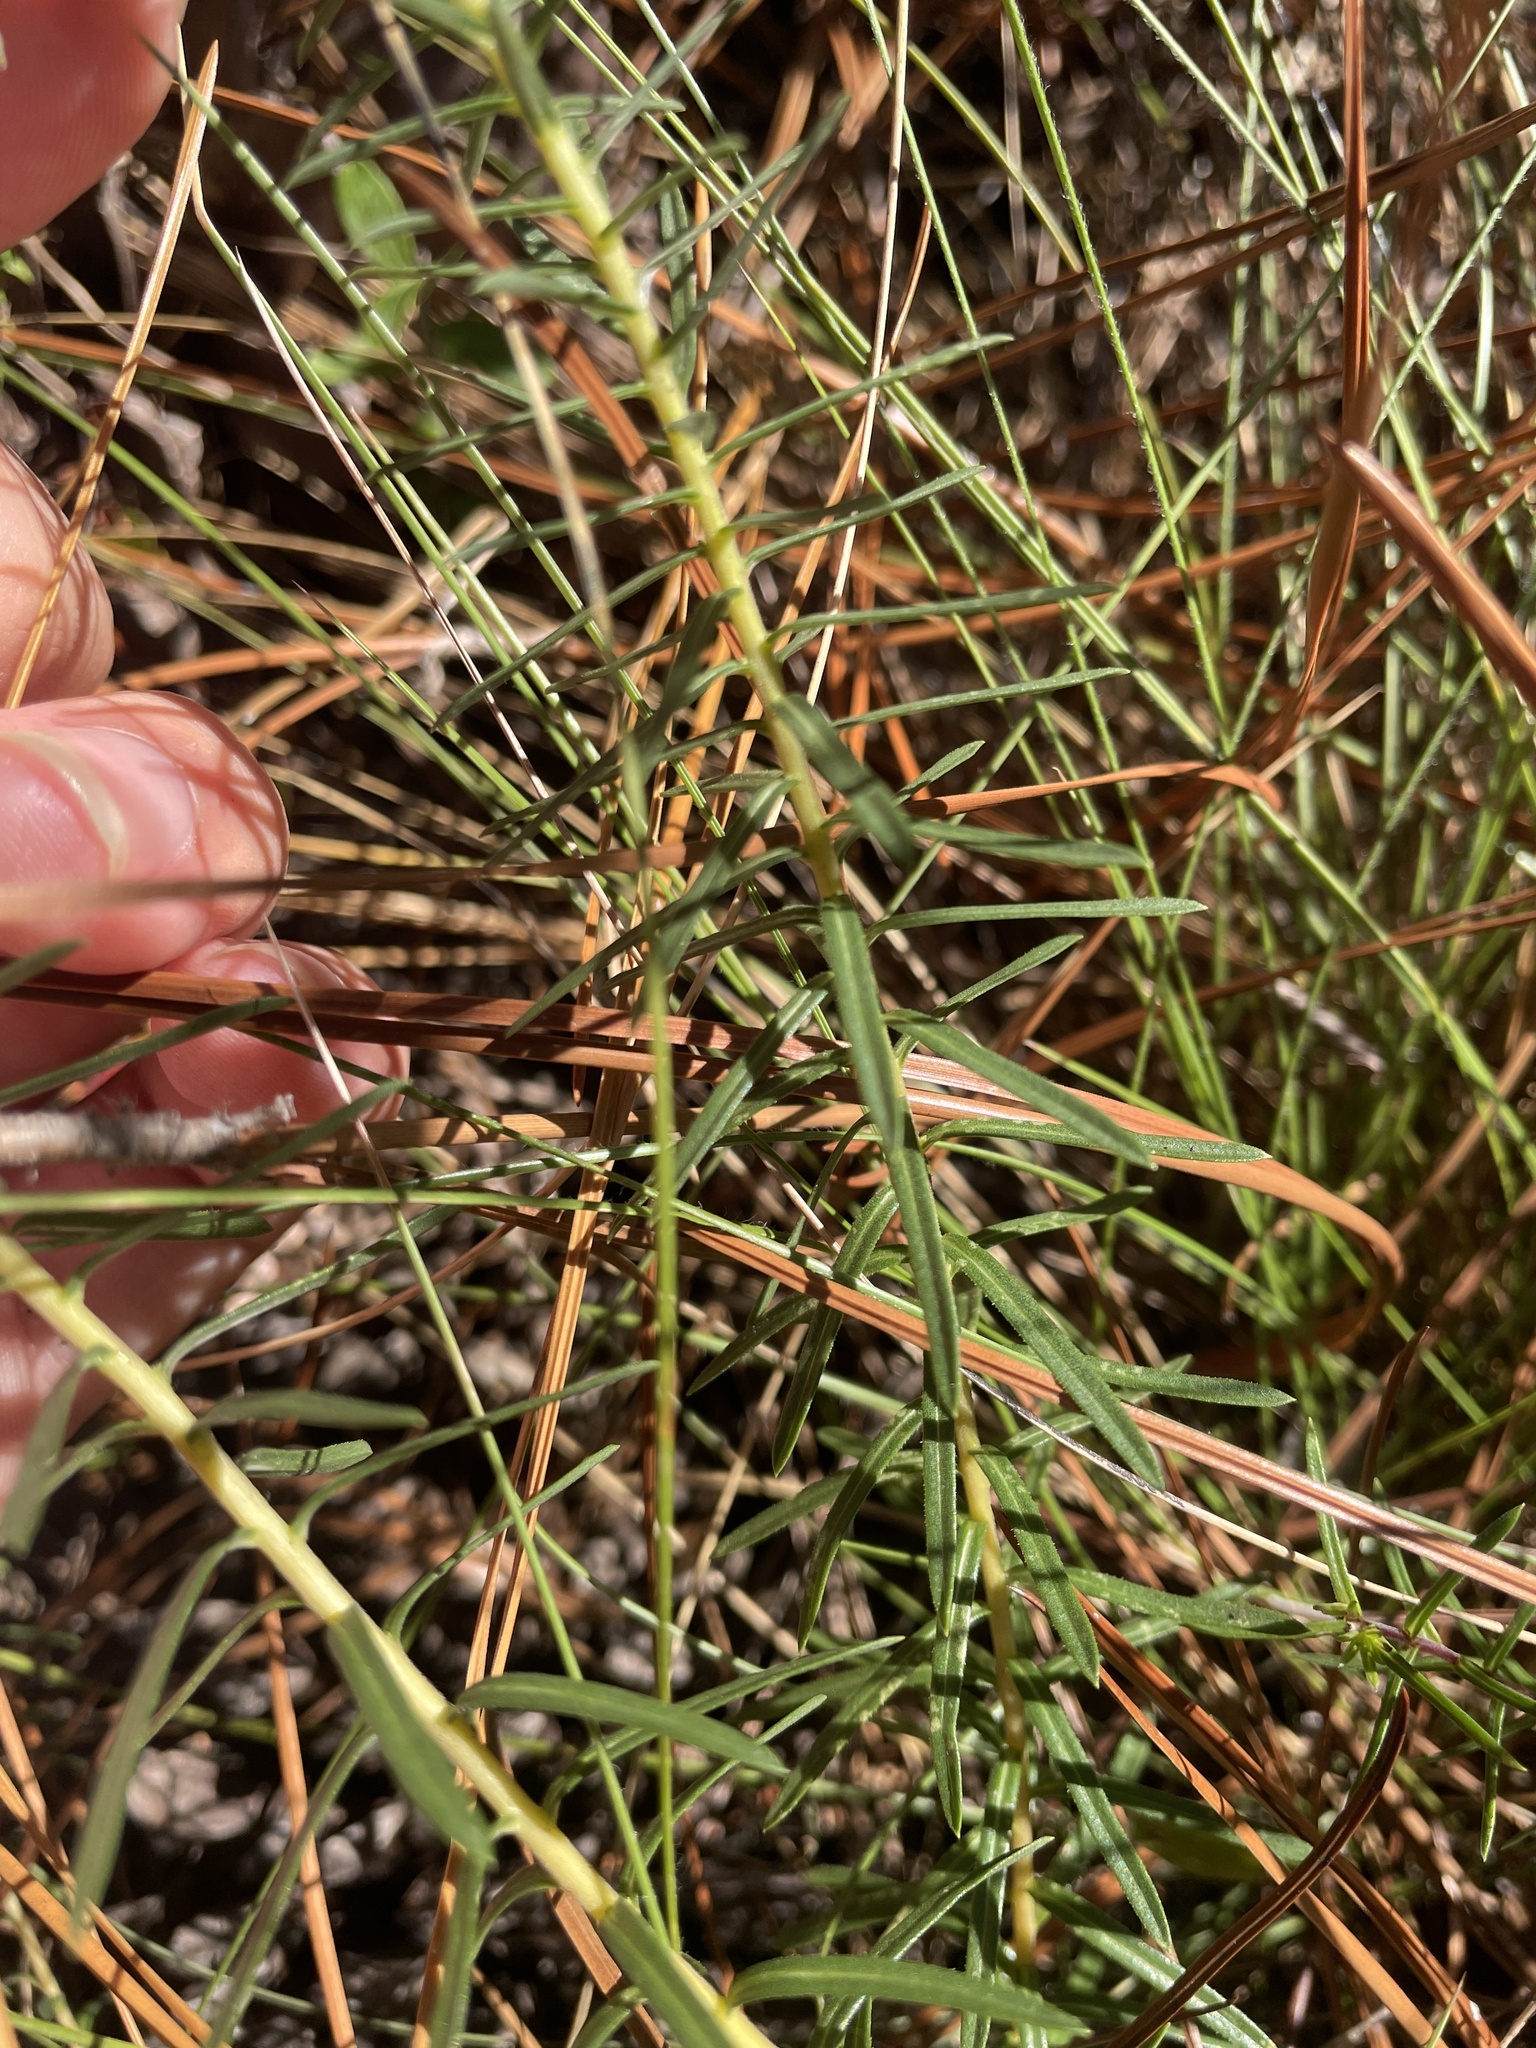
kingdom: Plantae
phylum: Tracheophyta
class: Magnoliopsida
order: Asterales
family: Asteraceae
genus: Ionactis
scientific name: Ionactis linariifolia
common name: Flax-leaf aster
